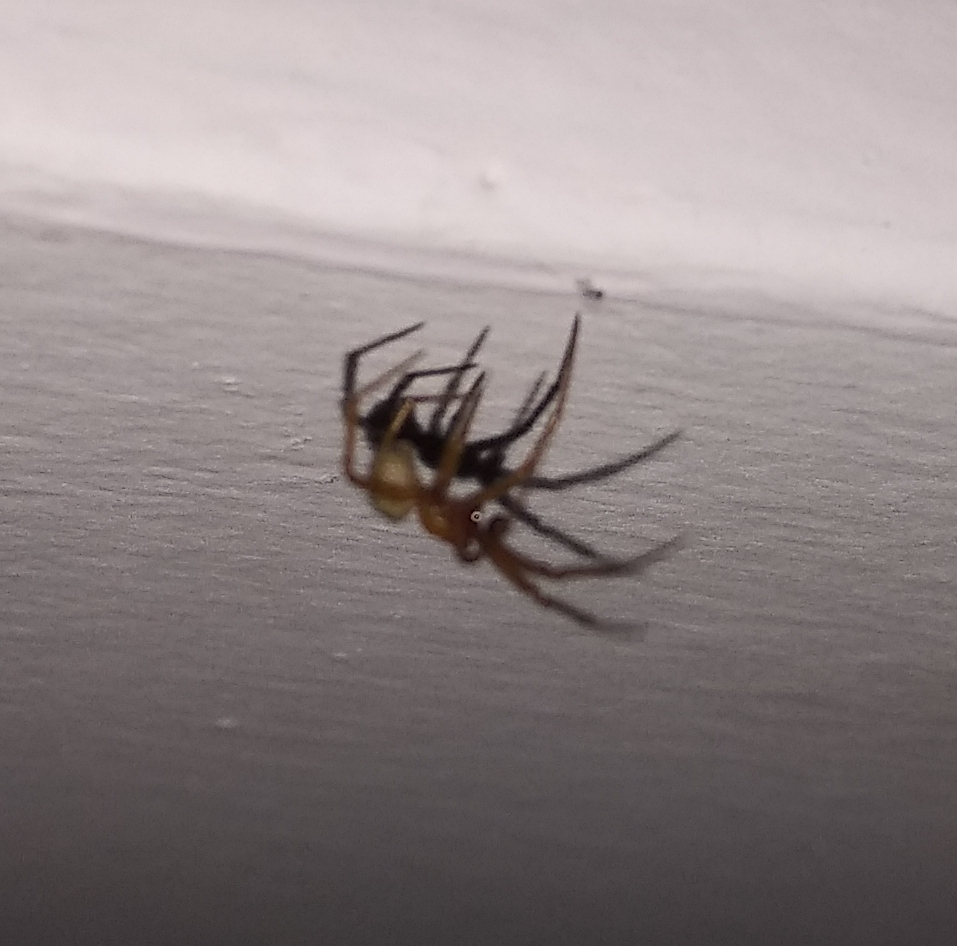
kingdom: Animalia
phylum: Arthropoda
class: Arachnida
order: Araneae
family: Theridiidae
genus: Nesticodes
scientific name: Nesticodes rufipes
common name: Cobweb spiders
